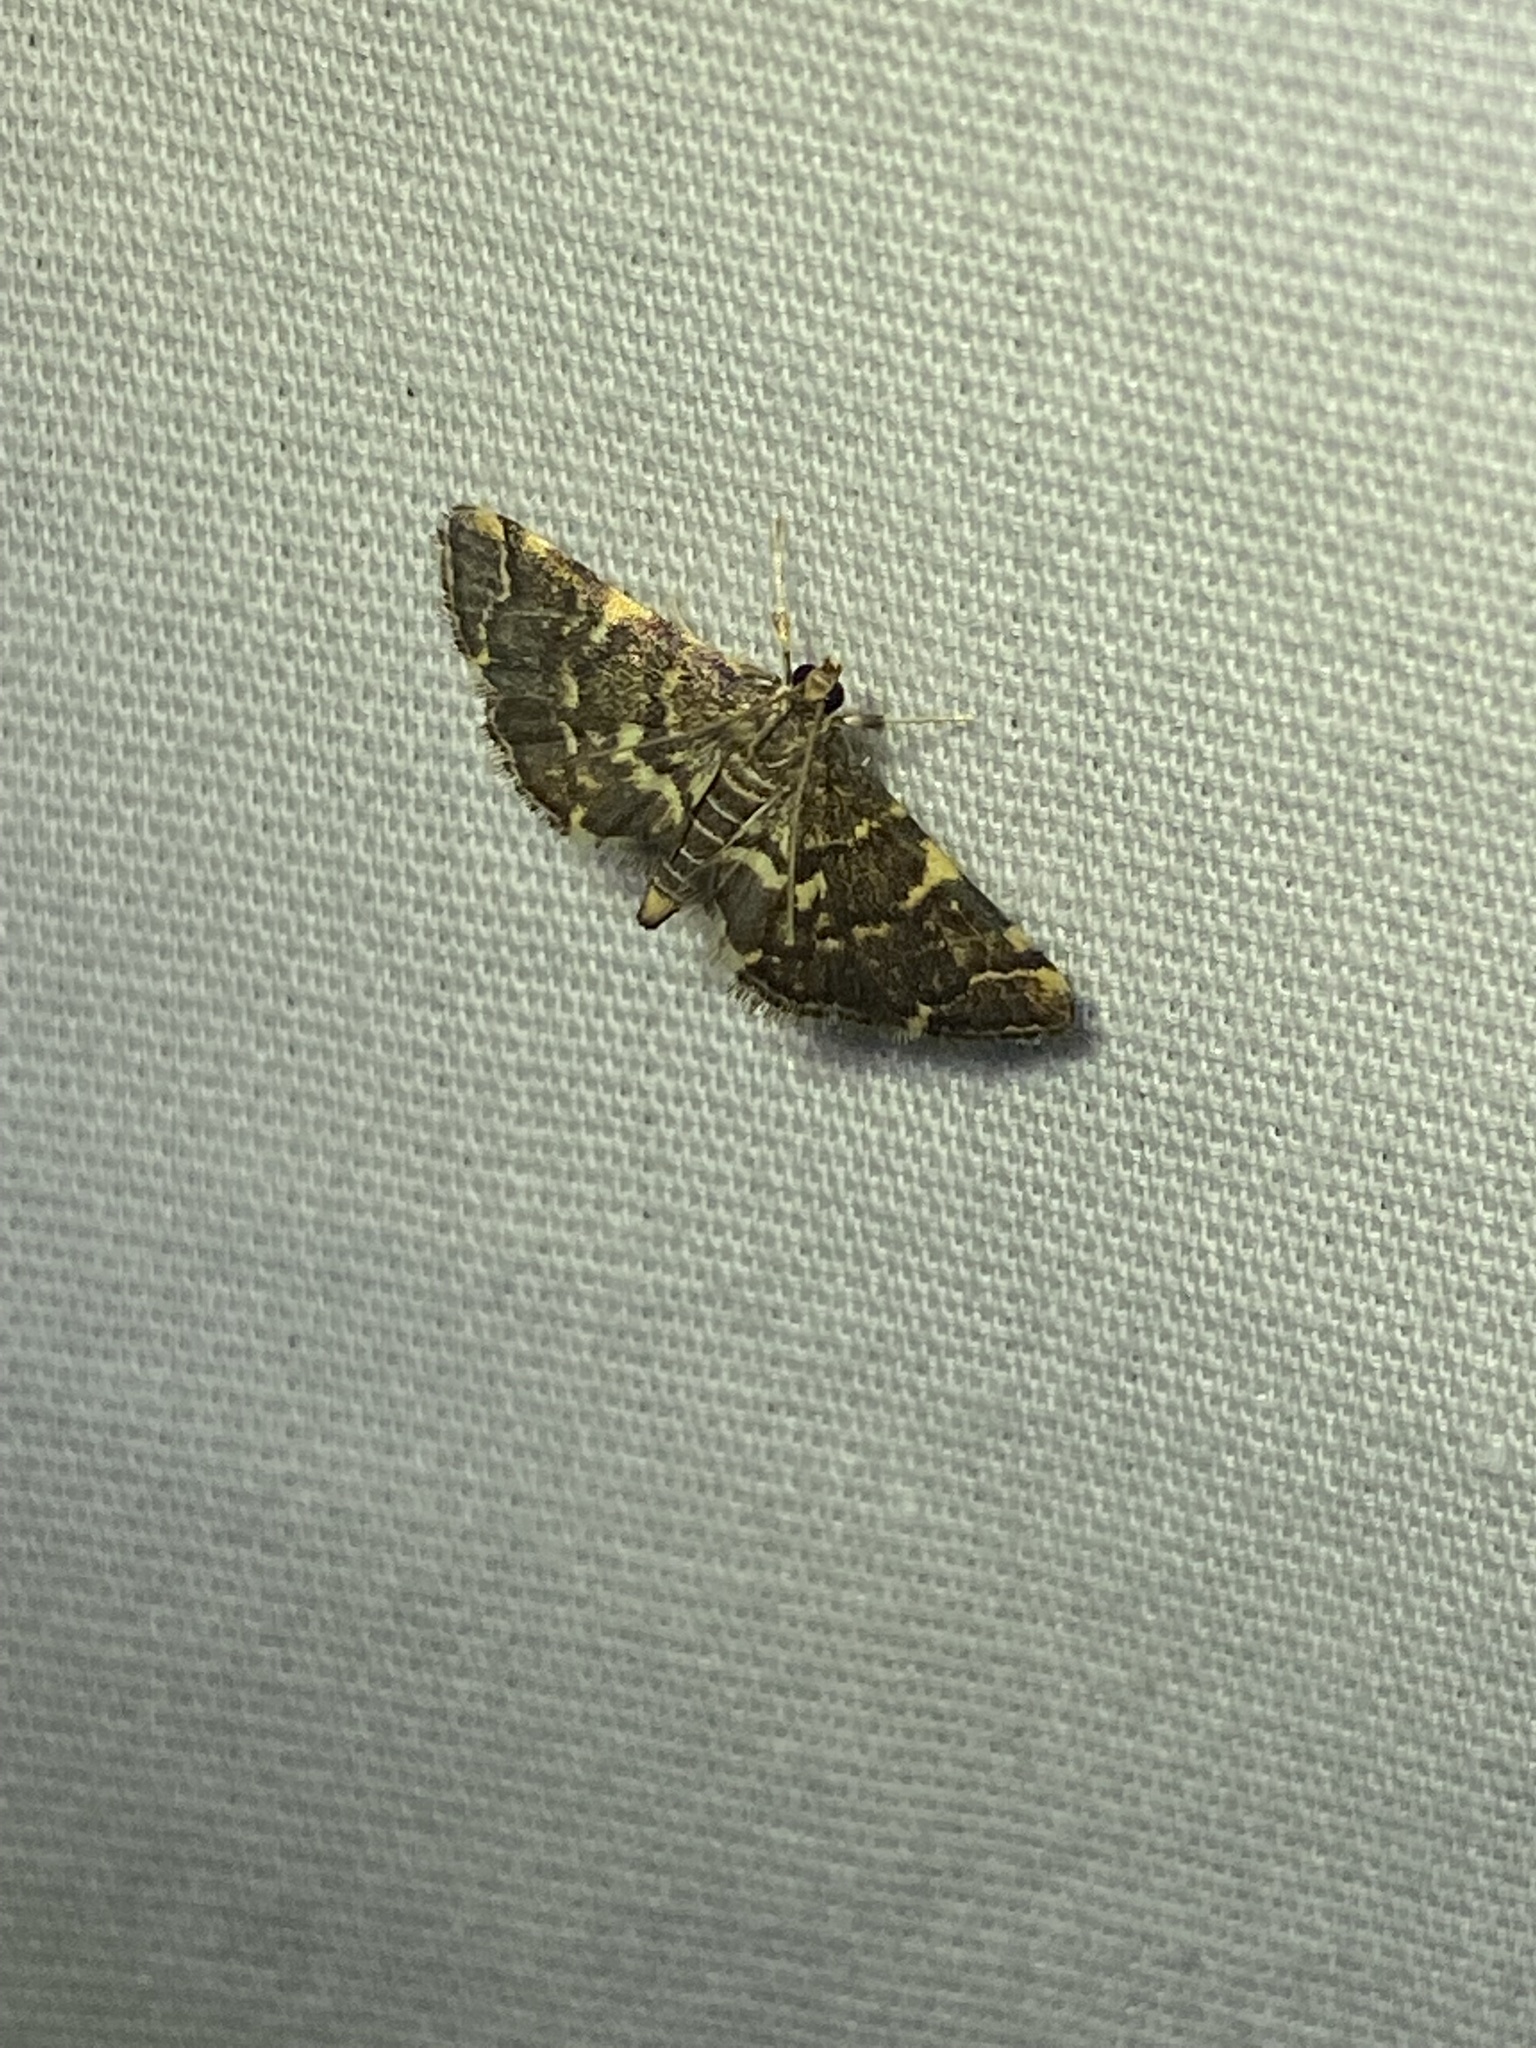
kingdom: Animalia
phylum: Arthropoda
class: Insecta
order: Lepidoptera
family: Crambidae
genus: Anageshna
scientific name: Anageshna primordialis
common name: Yellow-spotted webworm moth
